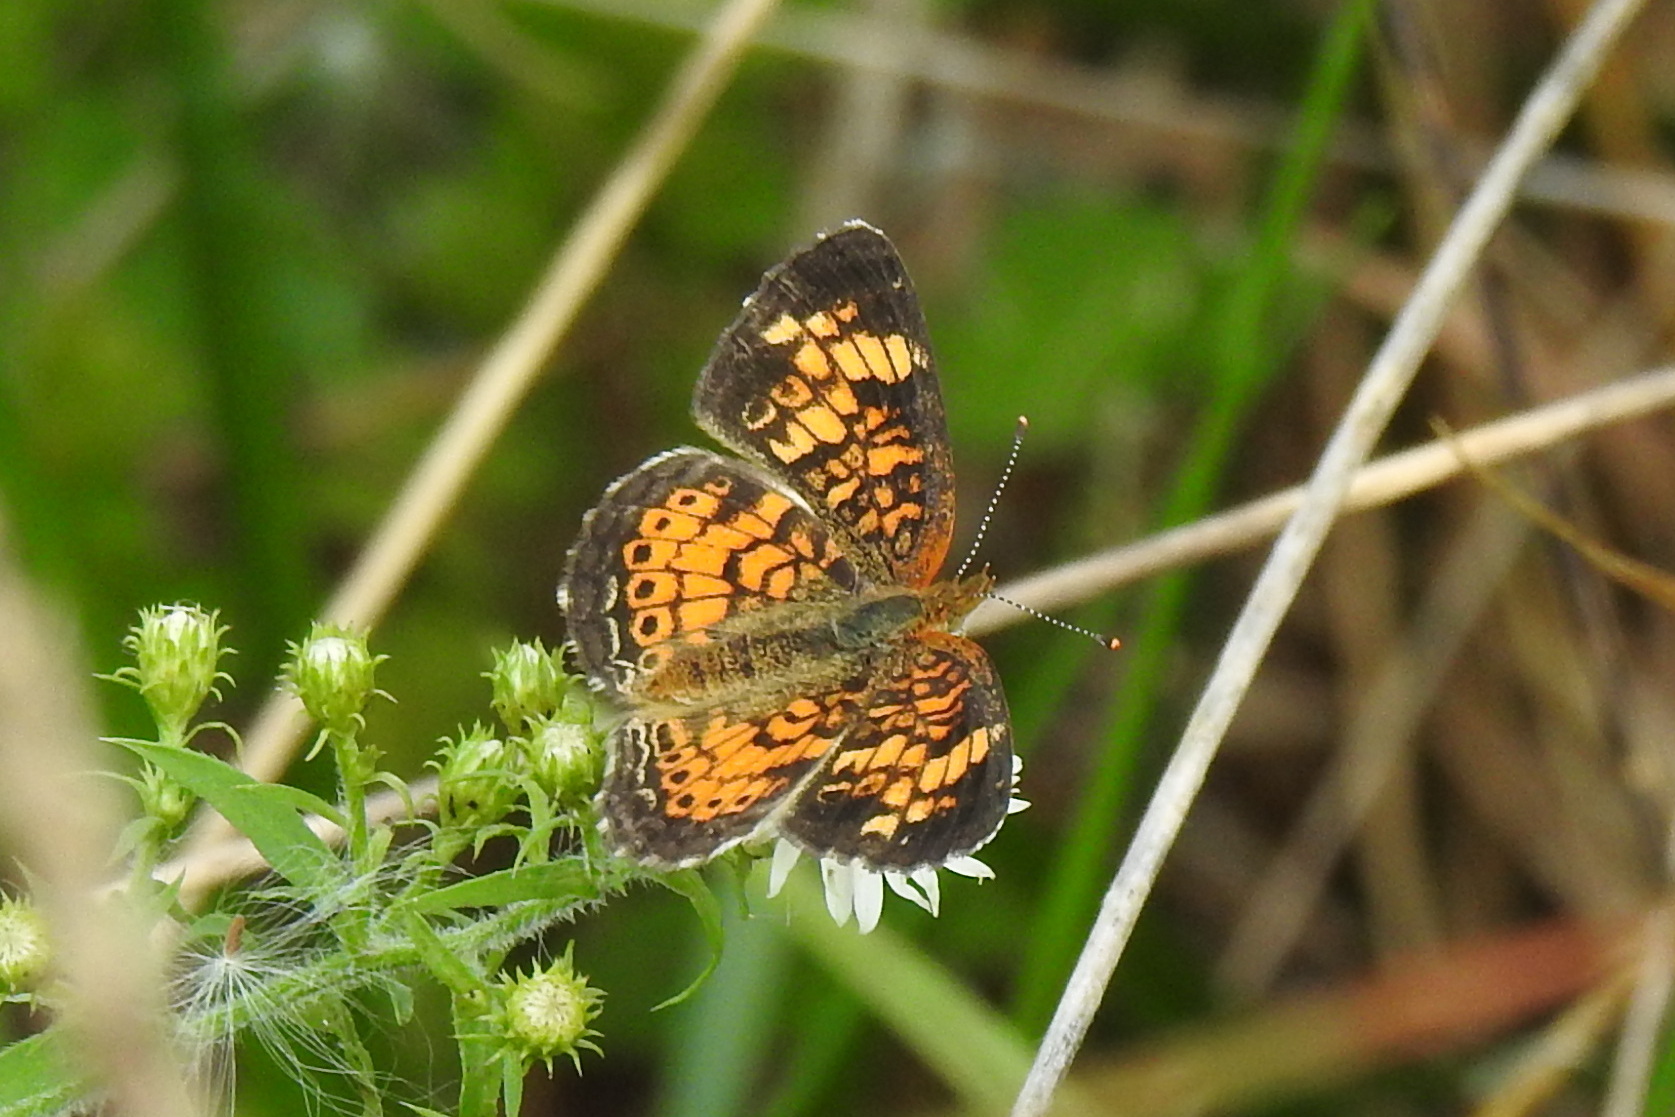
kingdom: Animalia
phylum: Arthropoda
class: Insecta
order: Lepidoptera
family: Nymphalidae
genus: Phyciodes
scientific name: Phyciodes tharos
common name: Pearl crescent
